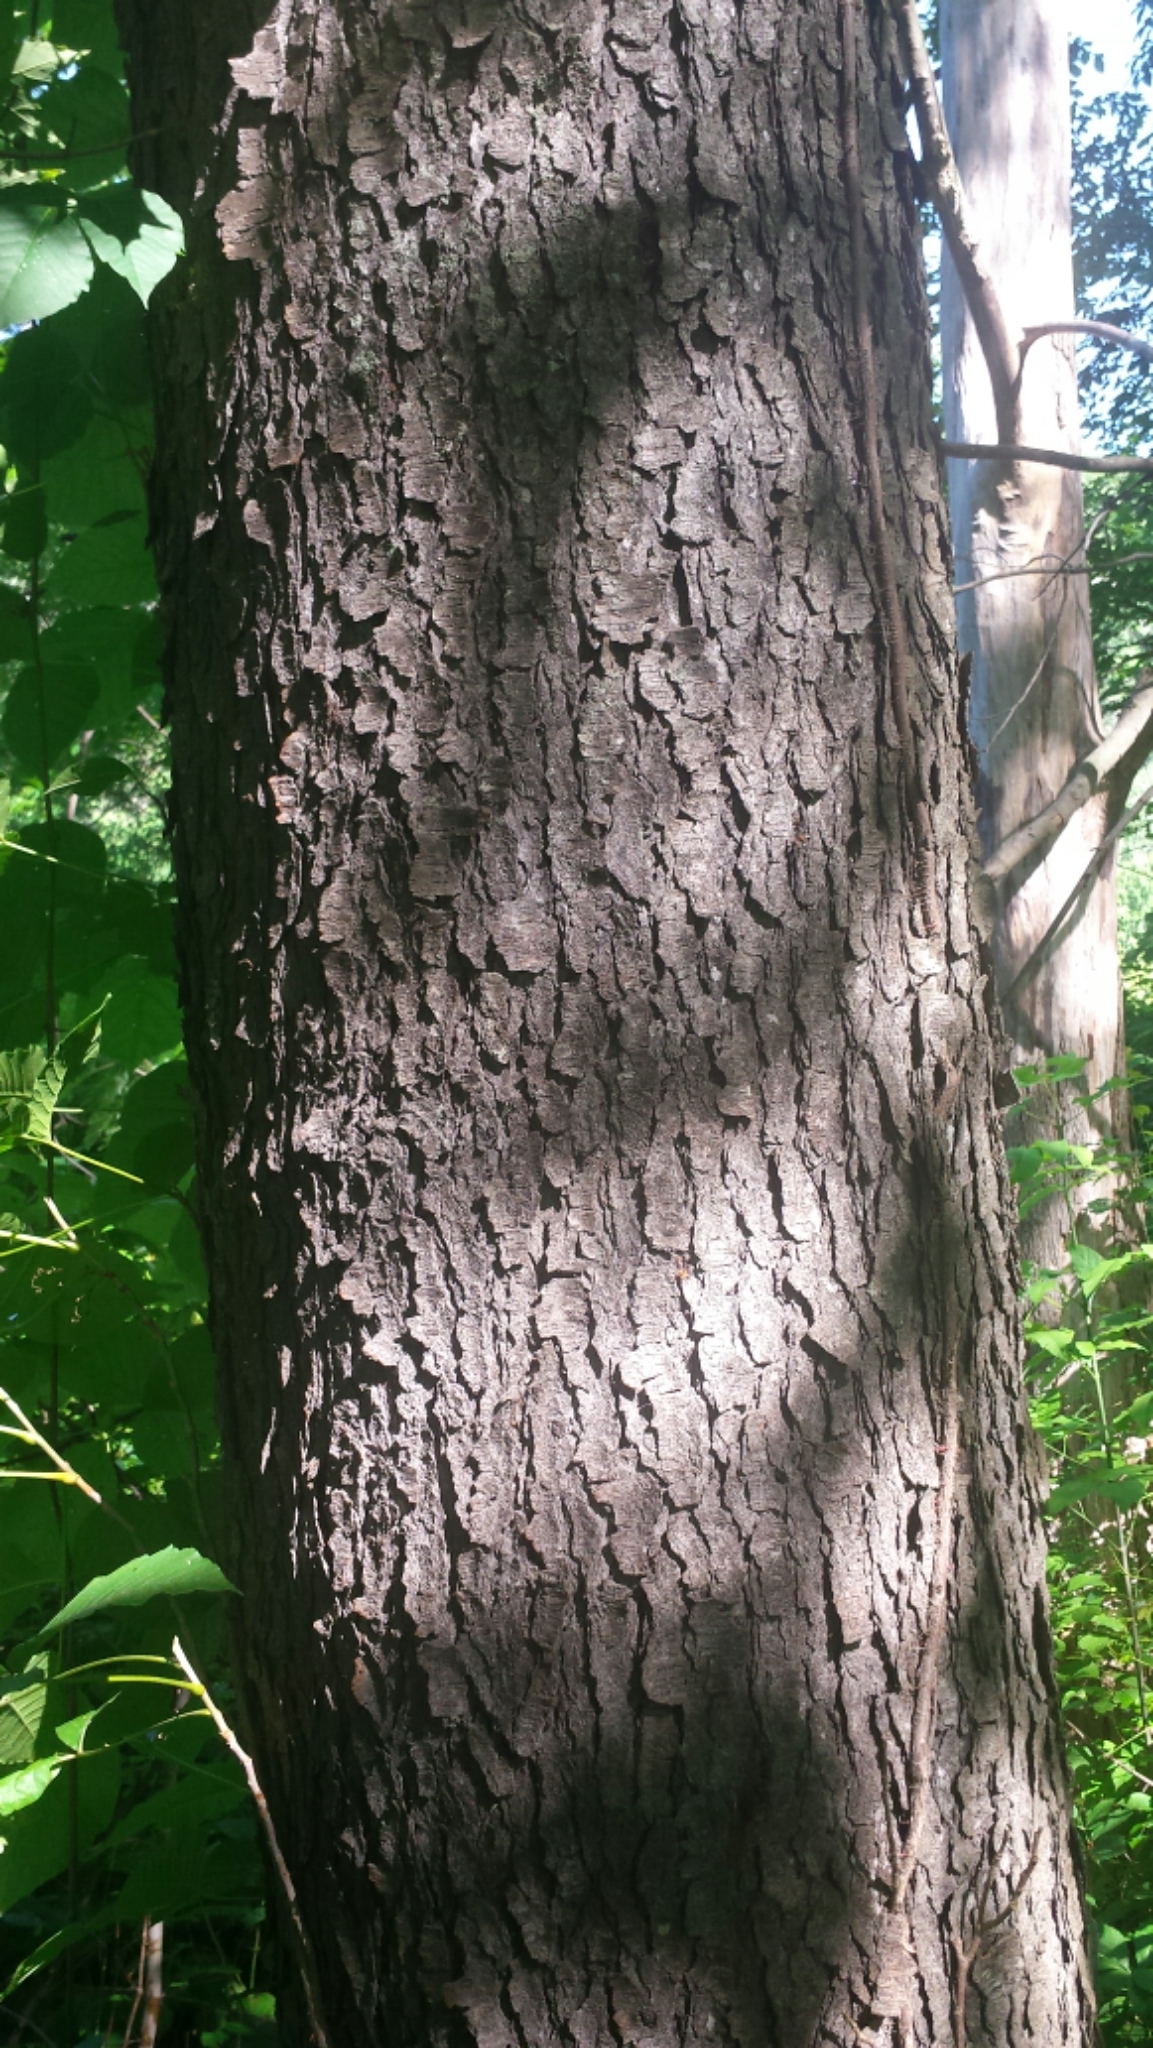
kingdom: Plantae
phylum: Tracheophyta
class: Magnoliopsida
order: Rosales
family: Rosaceae
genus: Prunus
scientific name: Prunus serotina
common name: Black cherry
